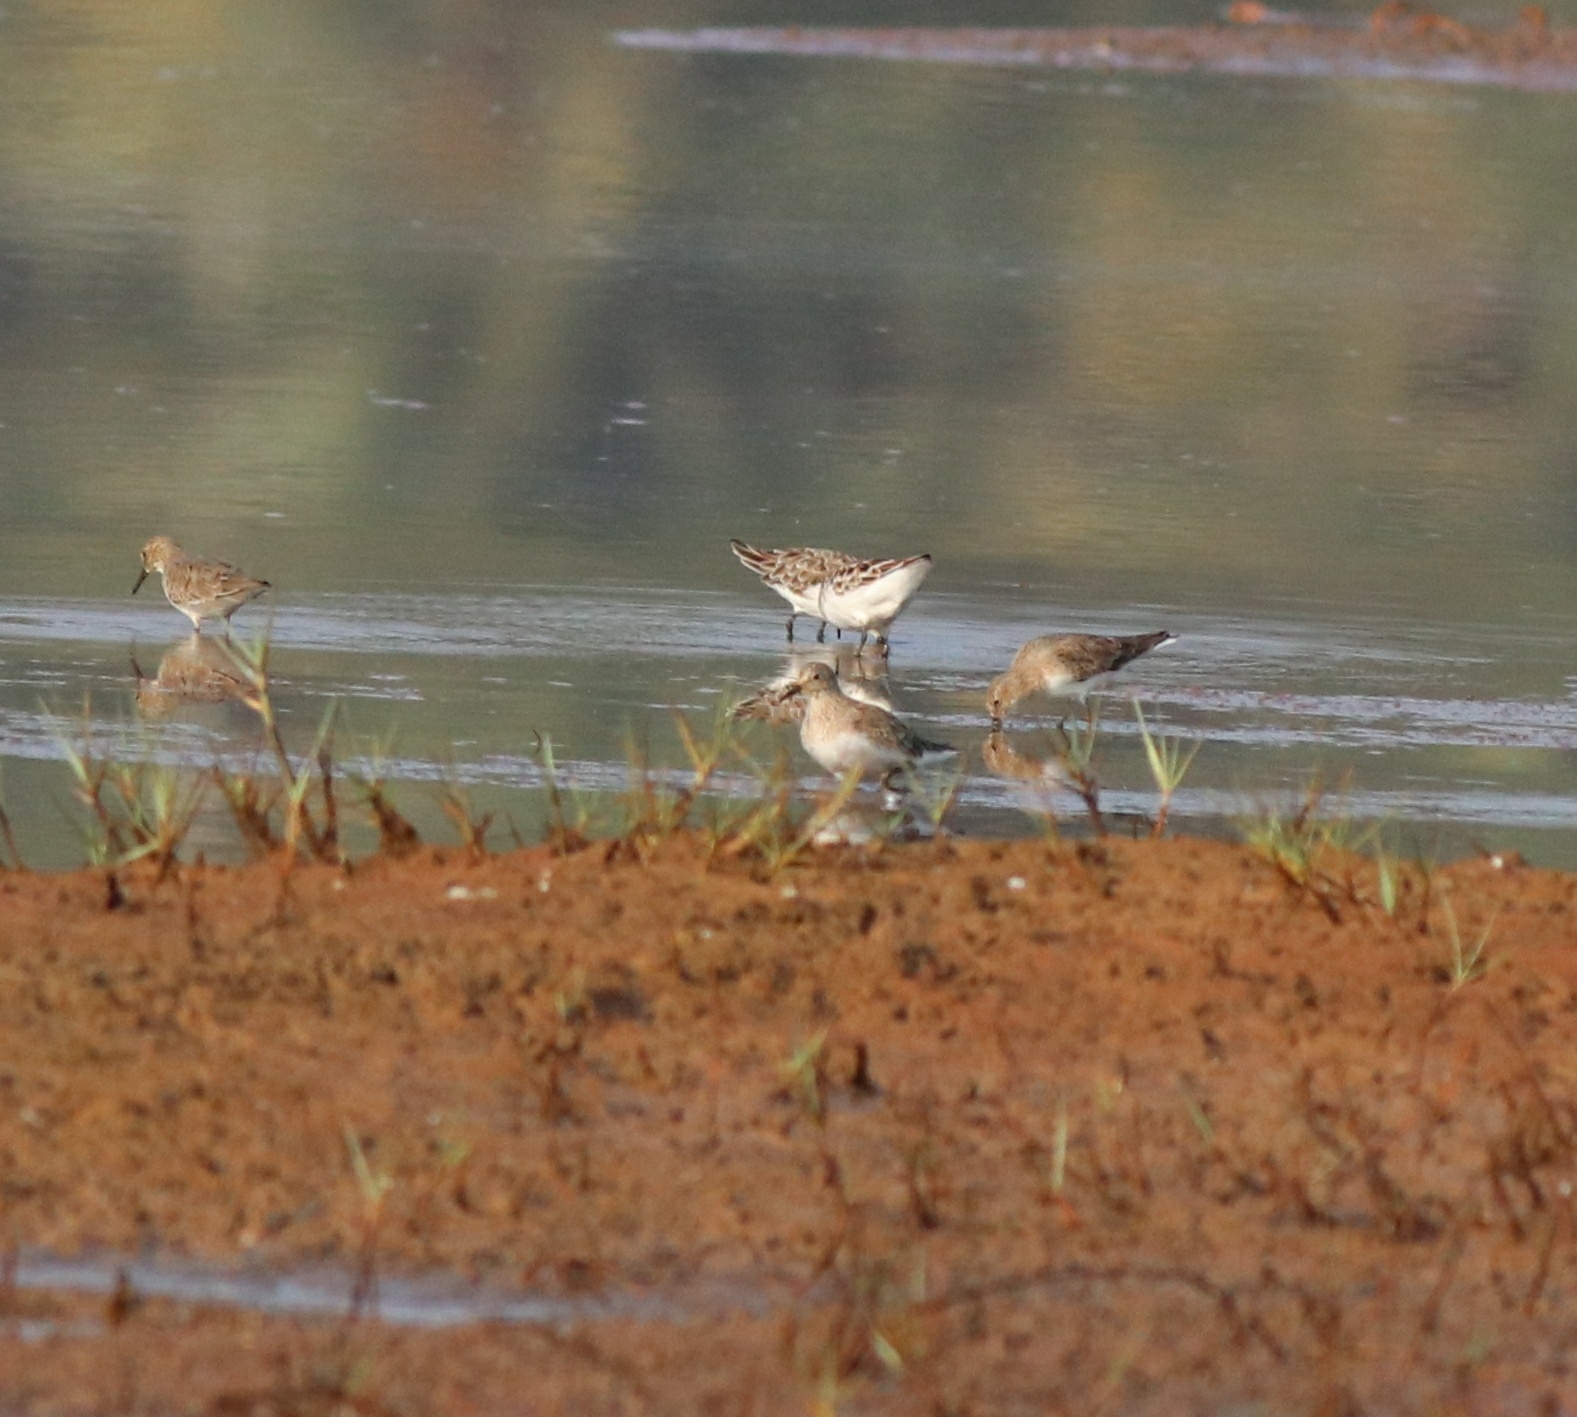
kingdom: Animalia
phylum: Chordata
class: Aves
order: Charadriiformes
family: Scolopacidae
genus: Calidris
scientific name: Calidris temminckii
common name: Temminck's stint
